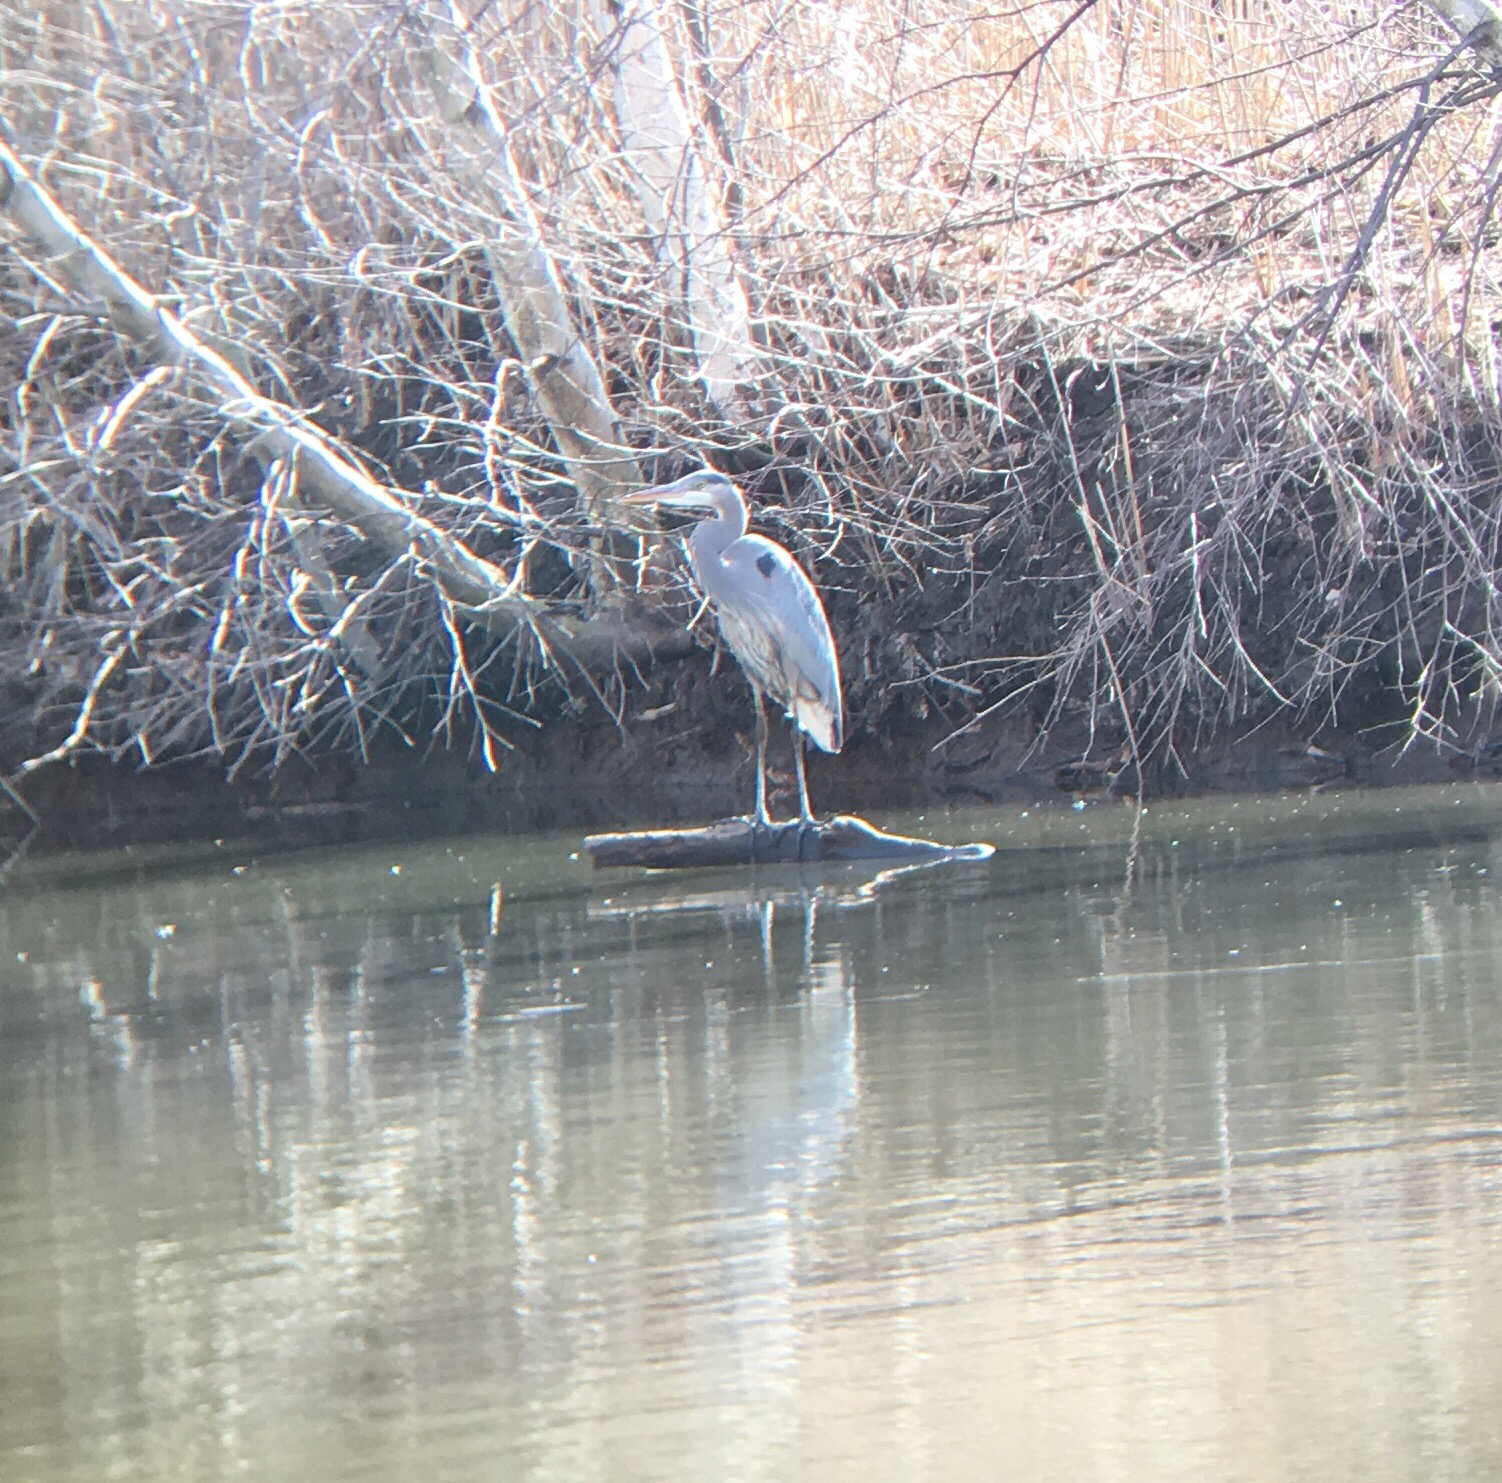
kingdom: Animalia
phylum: Chordata
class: Aves
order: Pelecaniformes
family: Ardeidae
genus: Ardea
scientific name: Ardea herodias
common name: Great blue heron
